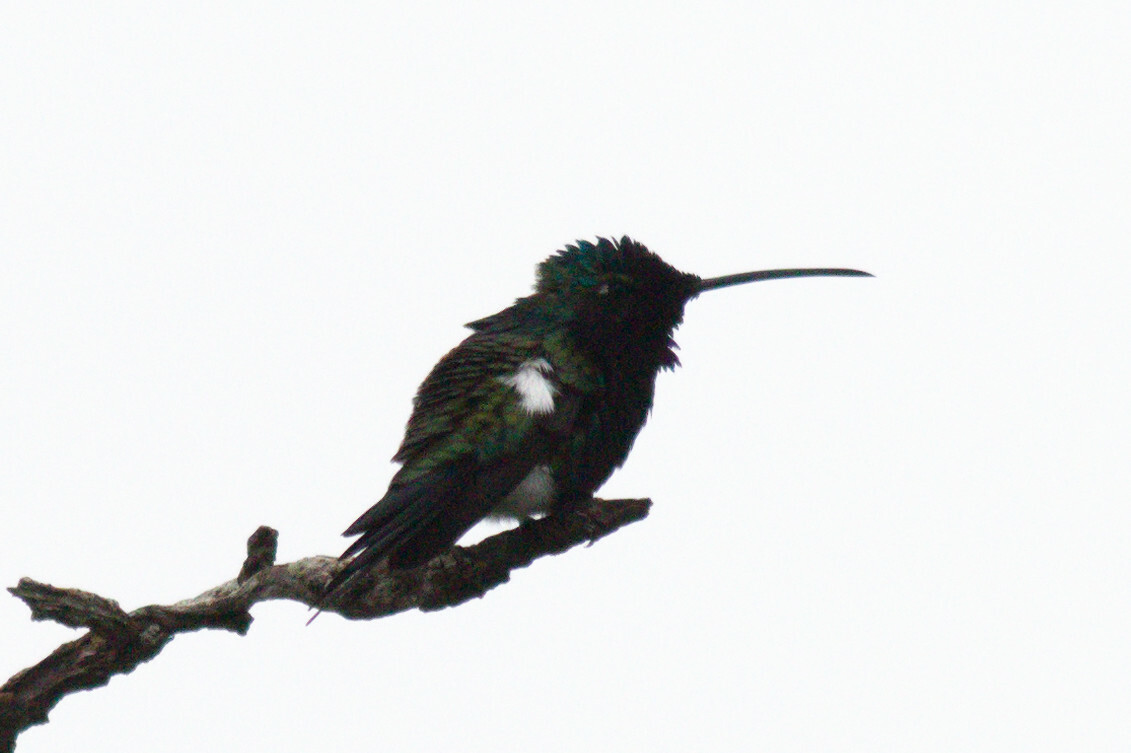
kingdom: Animalia
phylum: Chordata
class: Aves
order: Apodiformes
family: Trochilidae
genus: Heliomaster
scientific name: Heliomaster furcifer
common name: Blue-tufted starthroat
